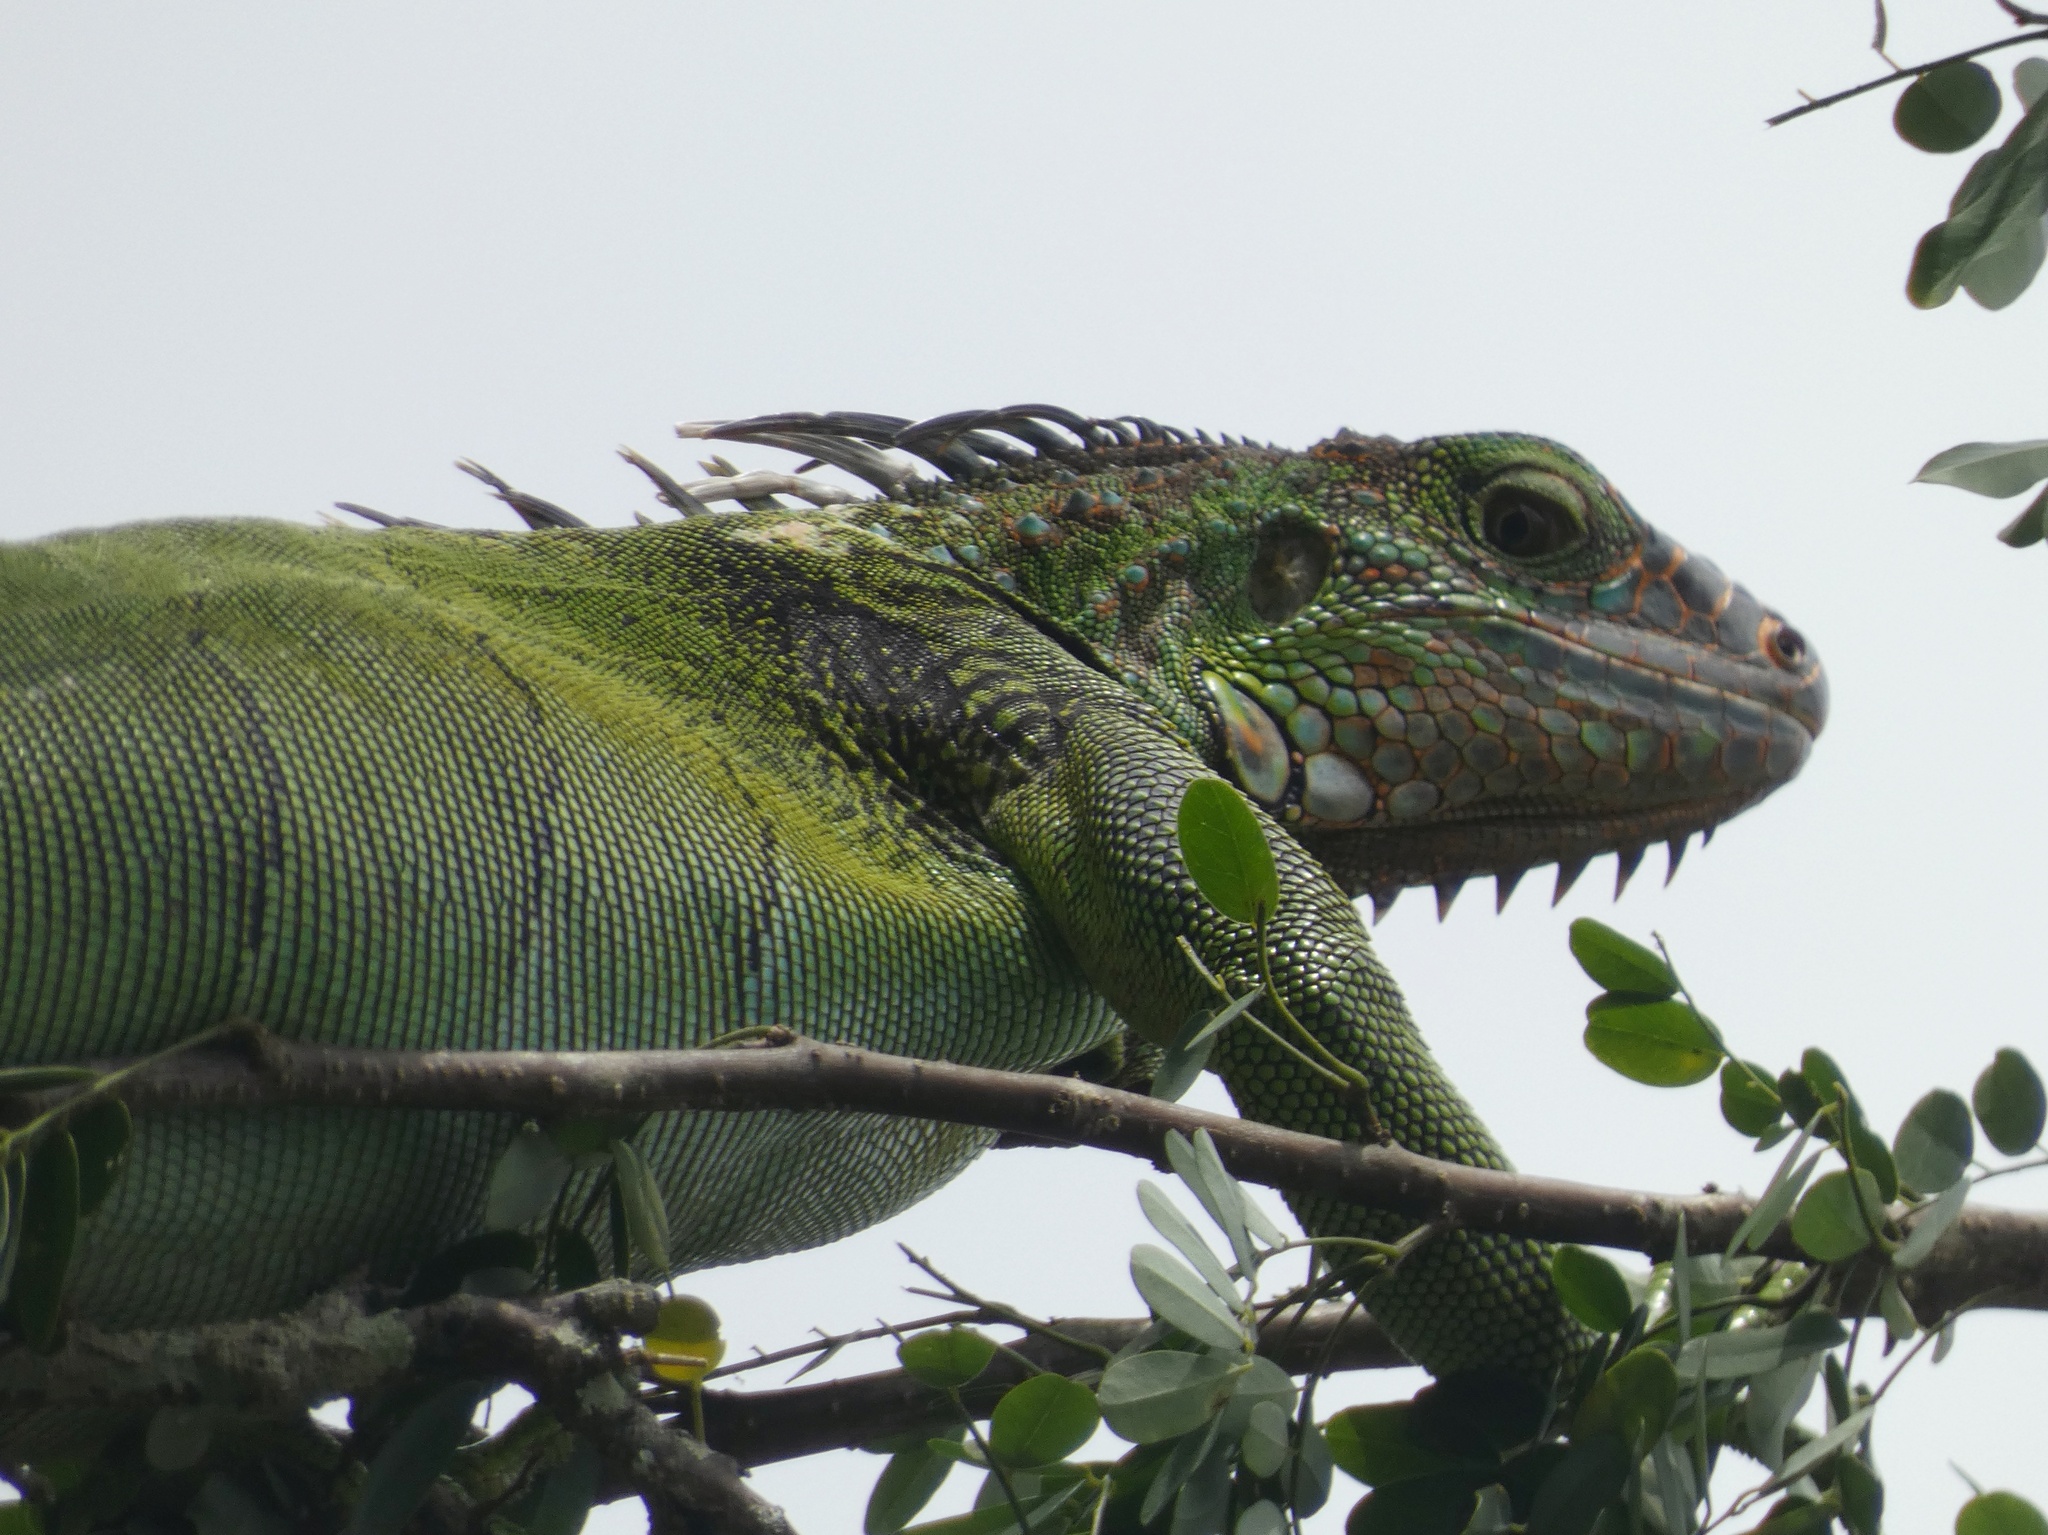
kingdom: Animalia
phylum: Chordata
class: Squamata
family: Iguanidae
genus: Iguana
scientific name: Iguana iguana
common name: Green iguana
